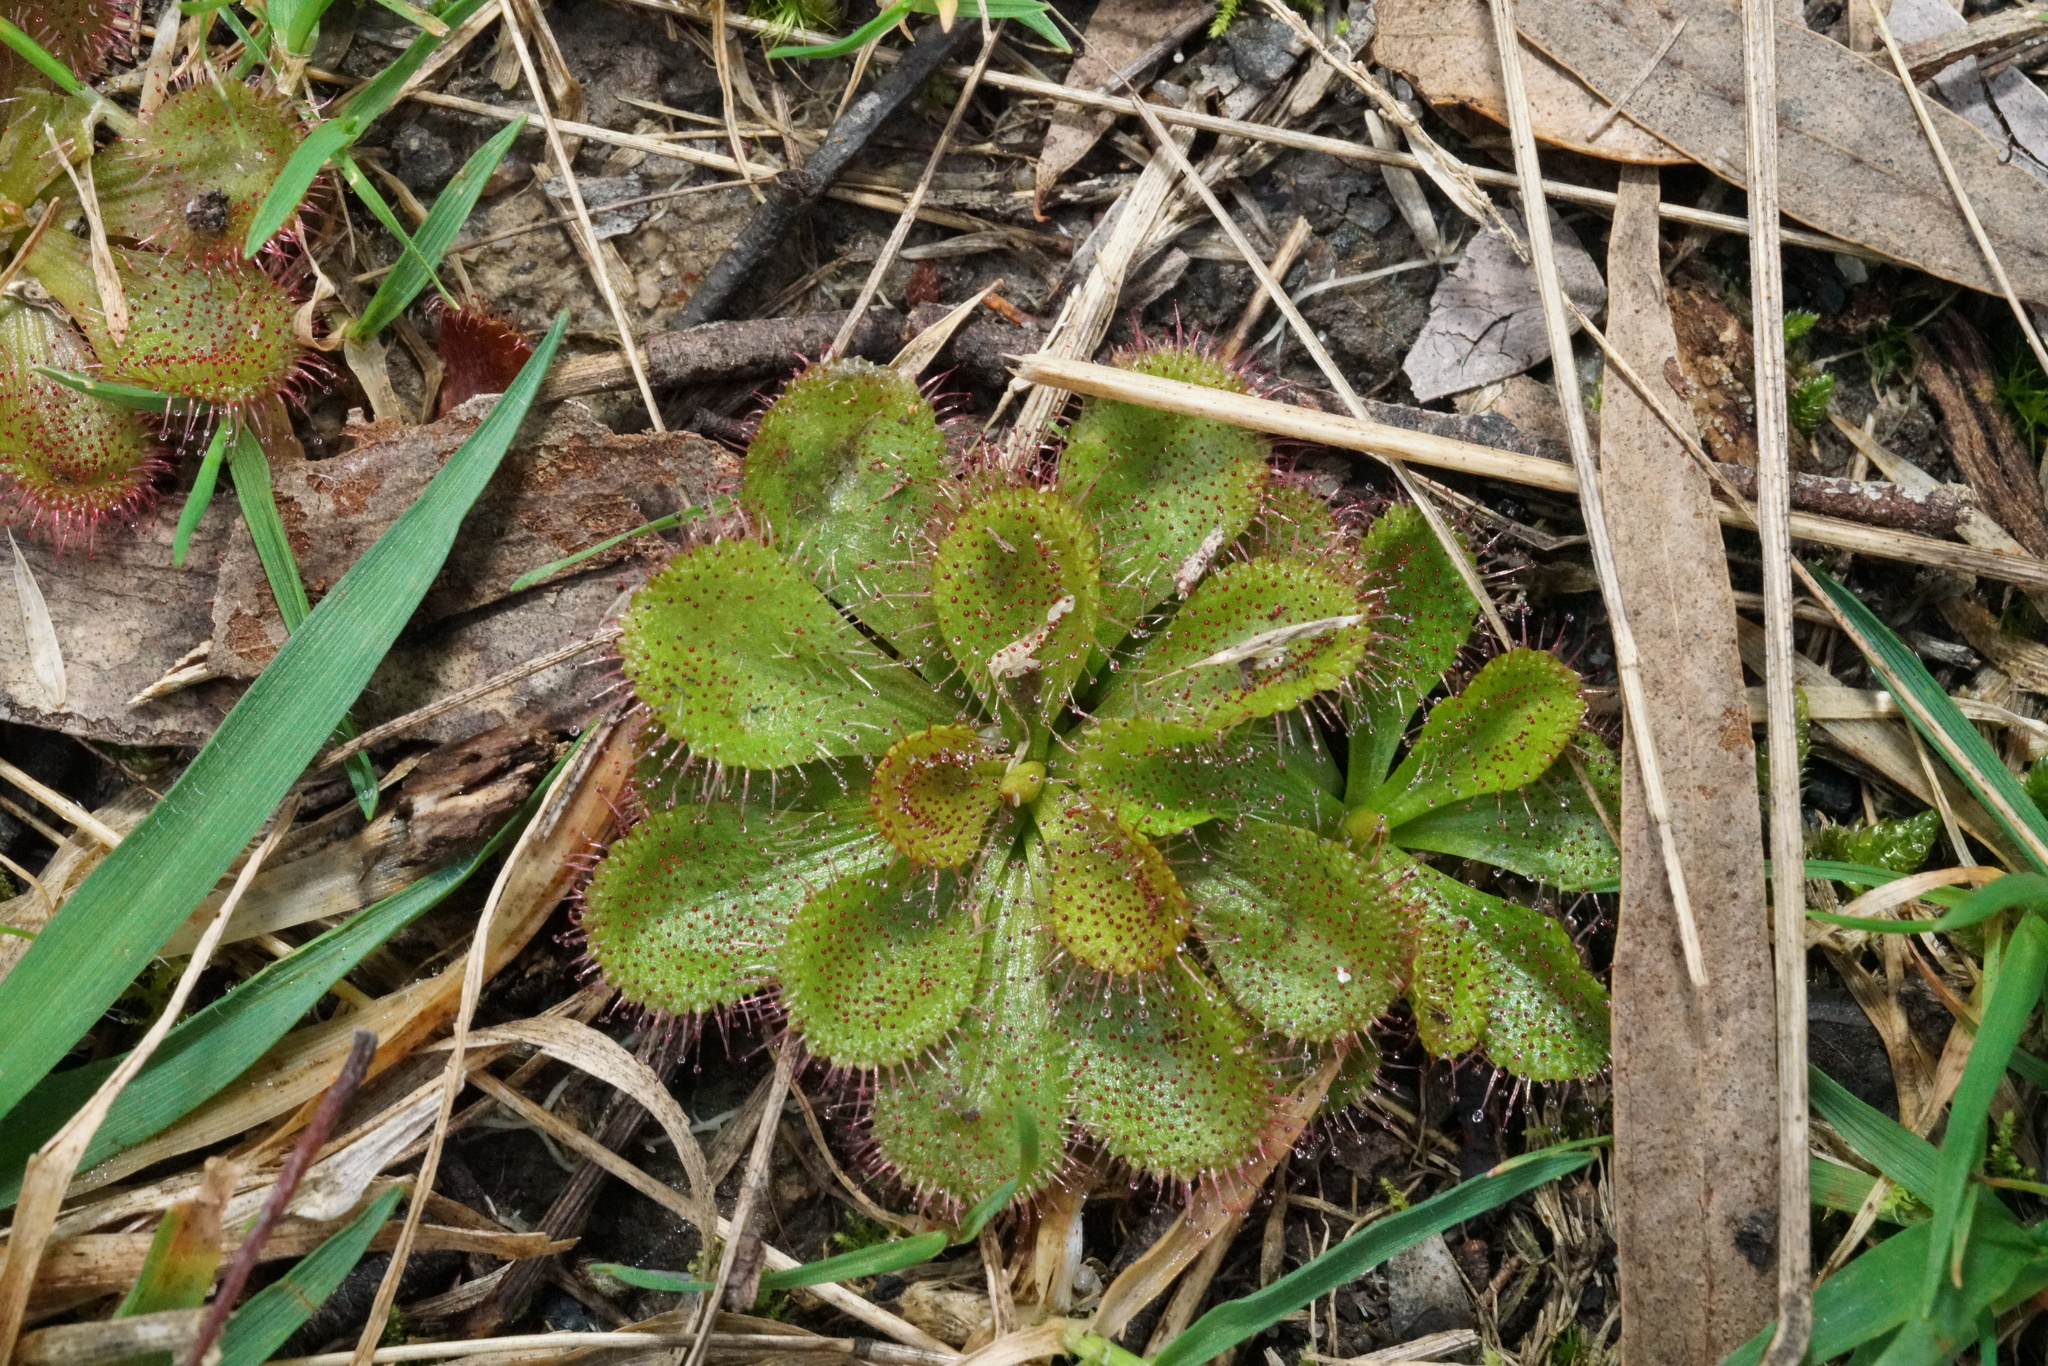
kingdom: Plantae
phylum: Tracheophyta
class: Magnoliopsida
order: Caryophyllales
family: Droseraceae
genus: Drosera
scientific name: Drosera aberrans
